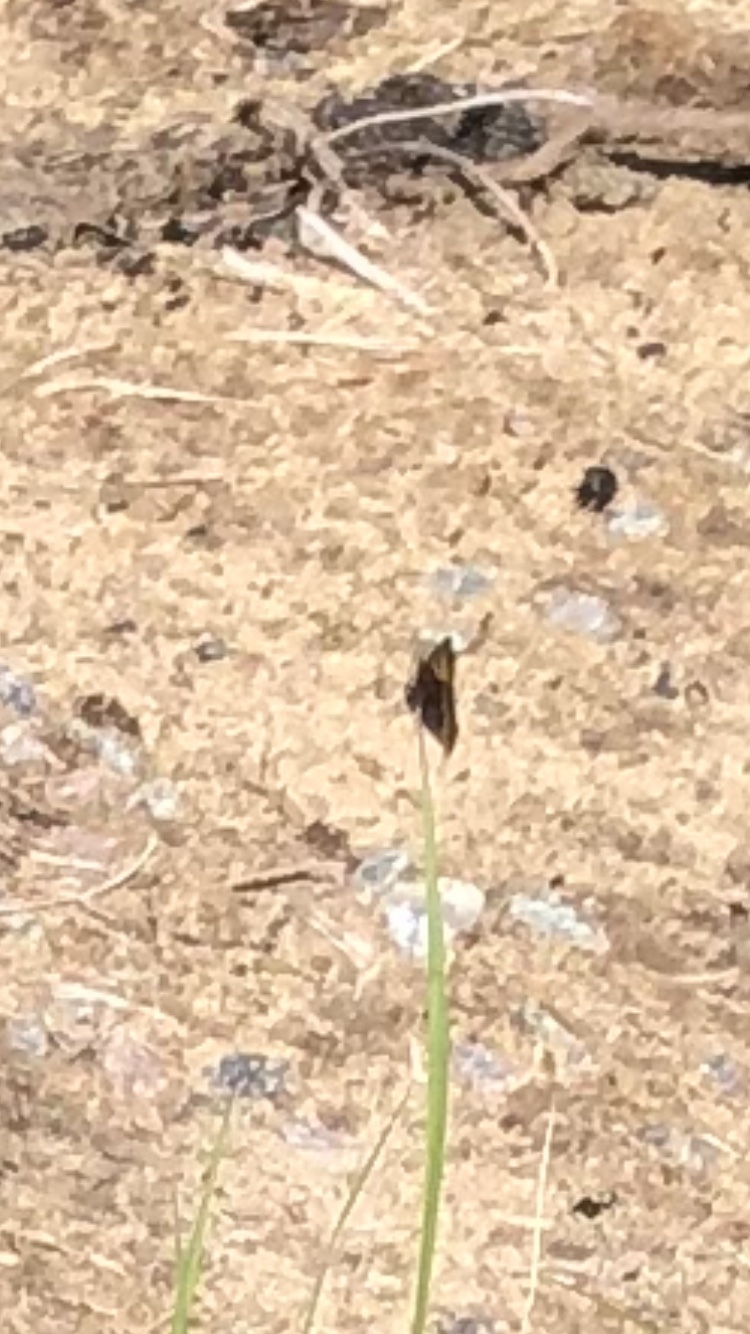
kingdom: Animalia
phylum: Arthropoda
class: Insecta
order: Lepidoptera
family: Nymphalidae
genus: Aglais
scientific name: Aglais urticae
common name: Small tortoiseshell
